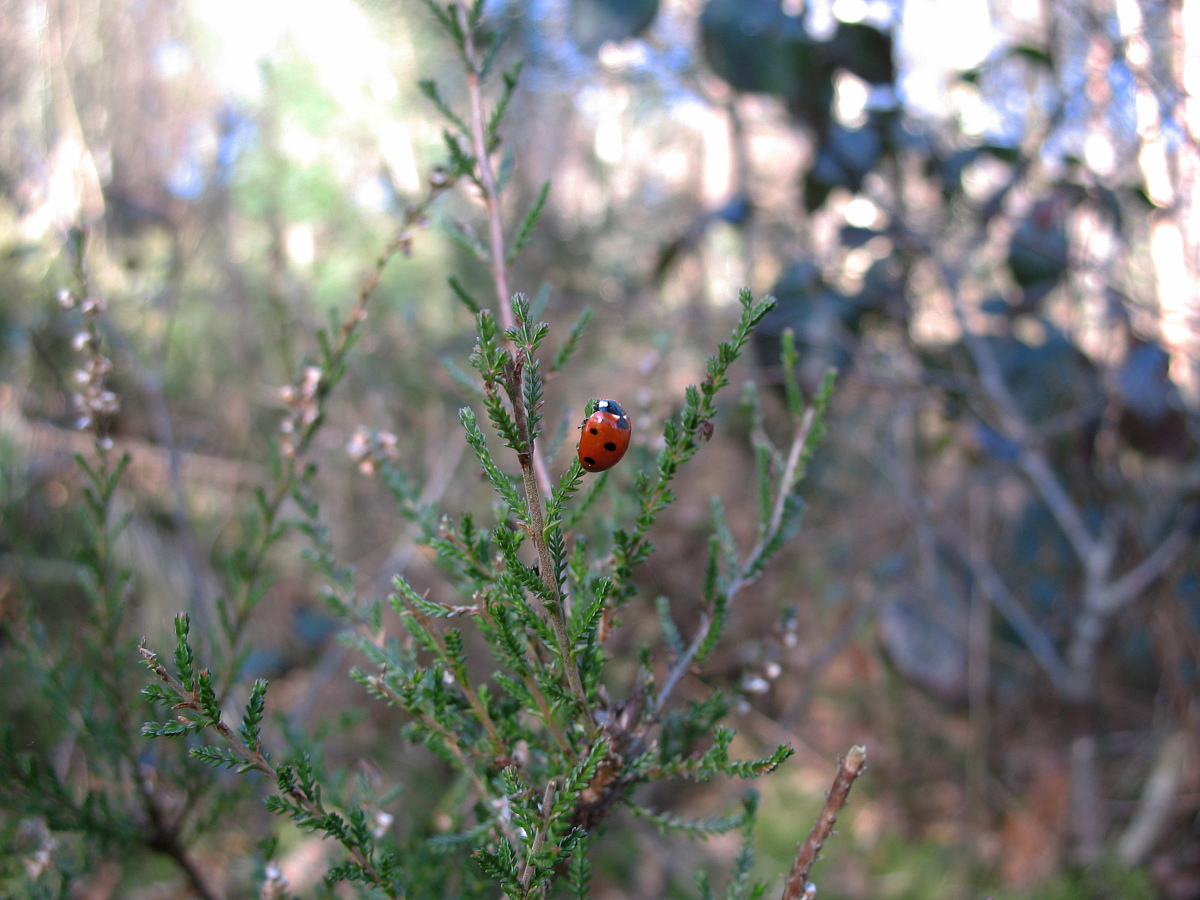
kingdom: Animalia
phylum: Arthropoda
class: Insecta
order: Coleoptera
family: Coccinellidae
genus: Coccinella
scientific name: Coccinella septempunctata
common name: Sevenspotted lady beetle
